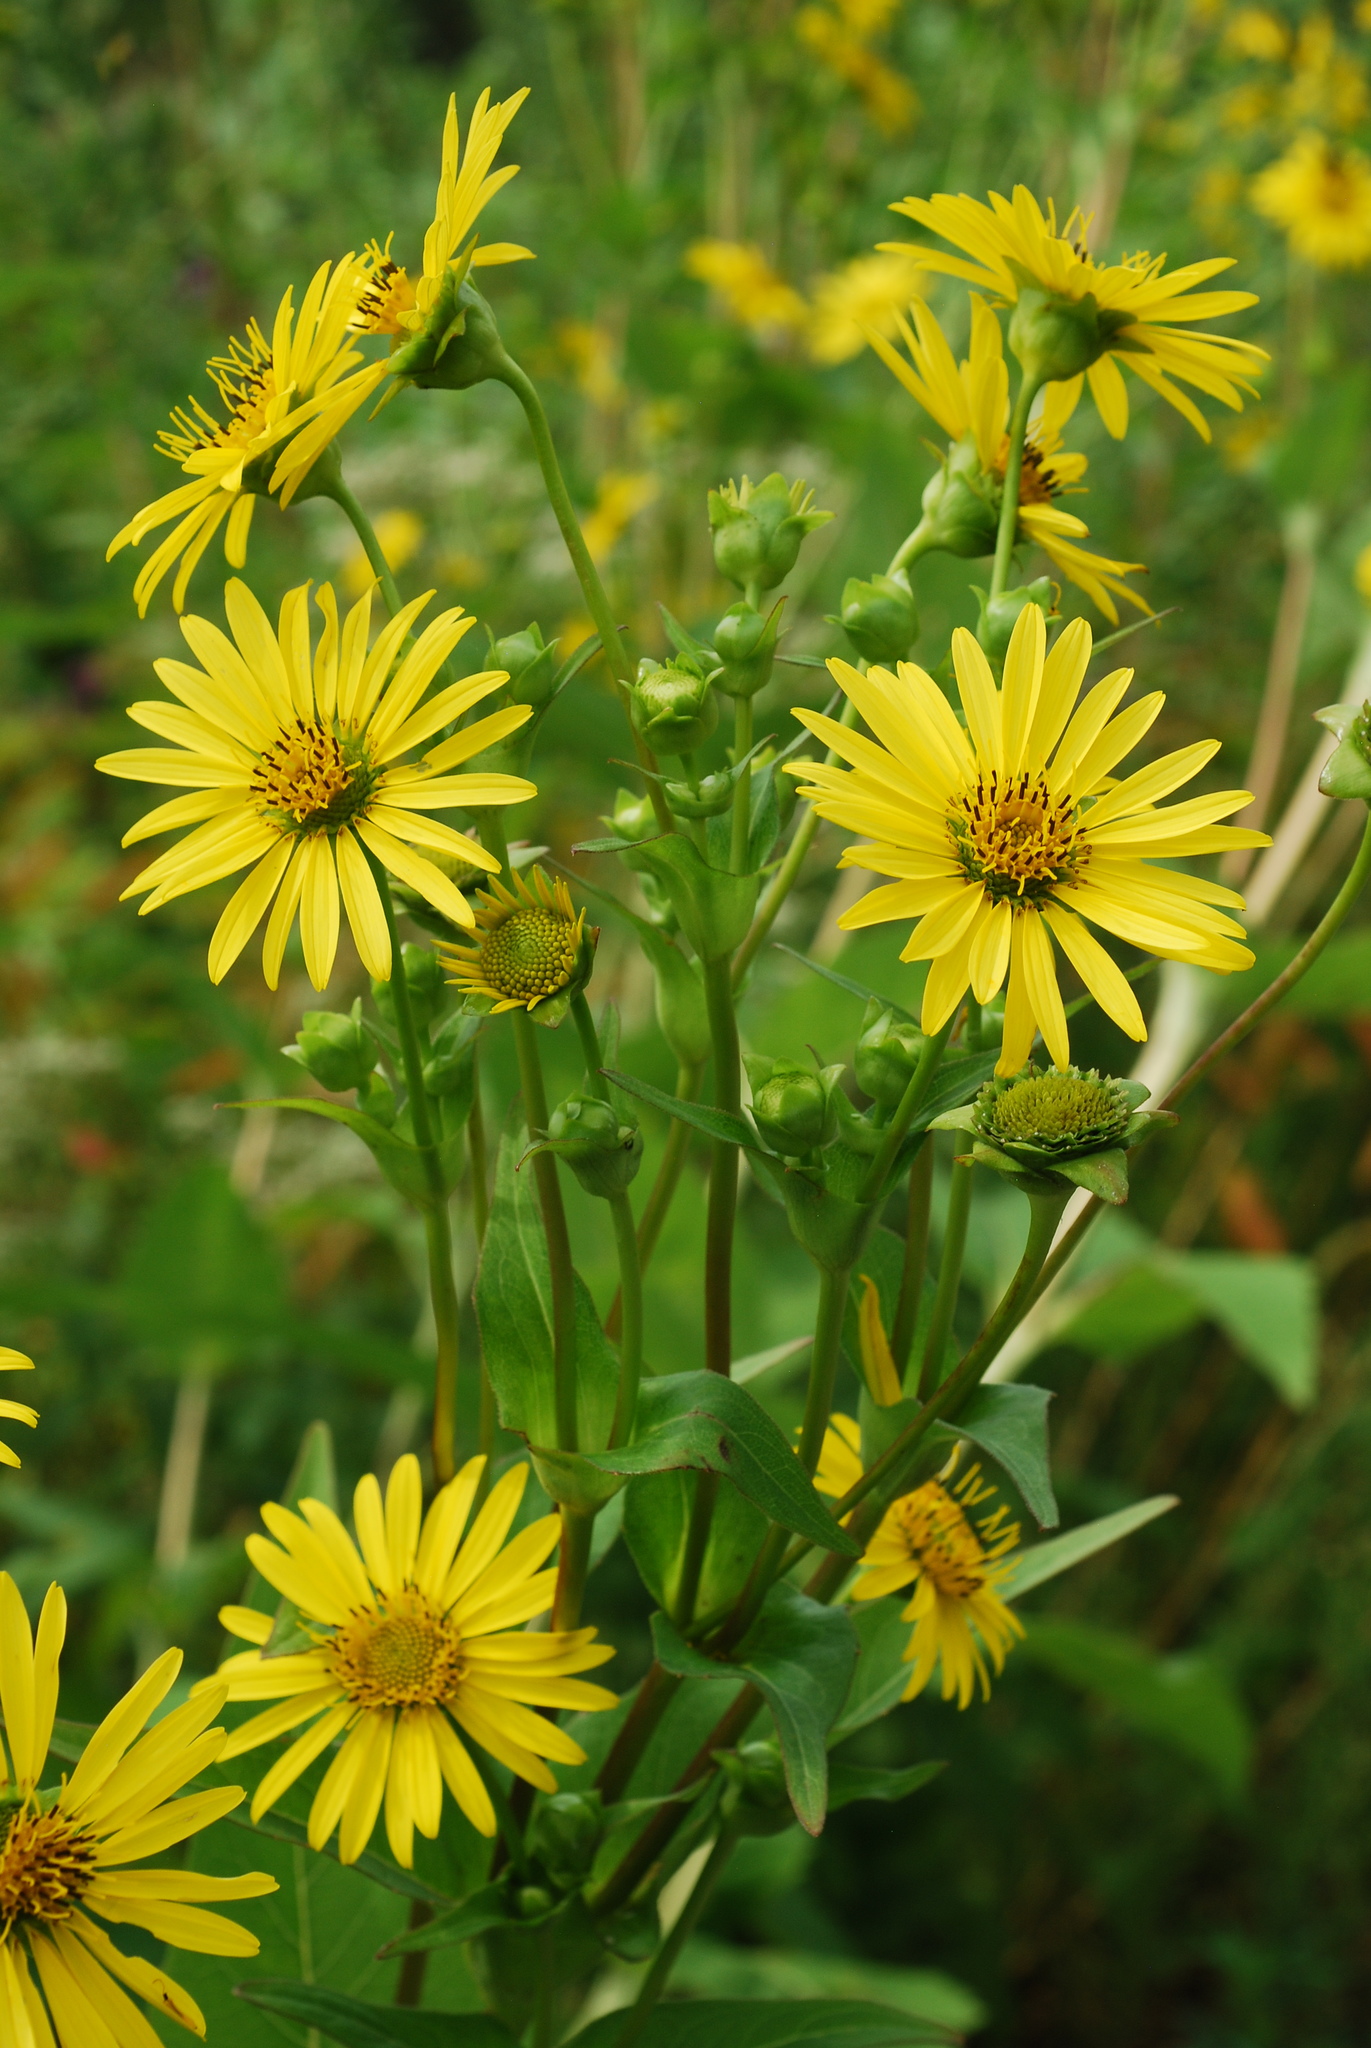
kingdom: Plantae
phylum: Tracheophyta
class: Magnoliopsida
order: Asterales
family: Asteraceae
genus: Silphium
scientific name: Silphium perfoliatum
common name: Cup-plant
